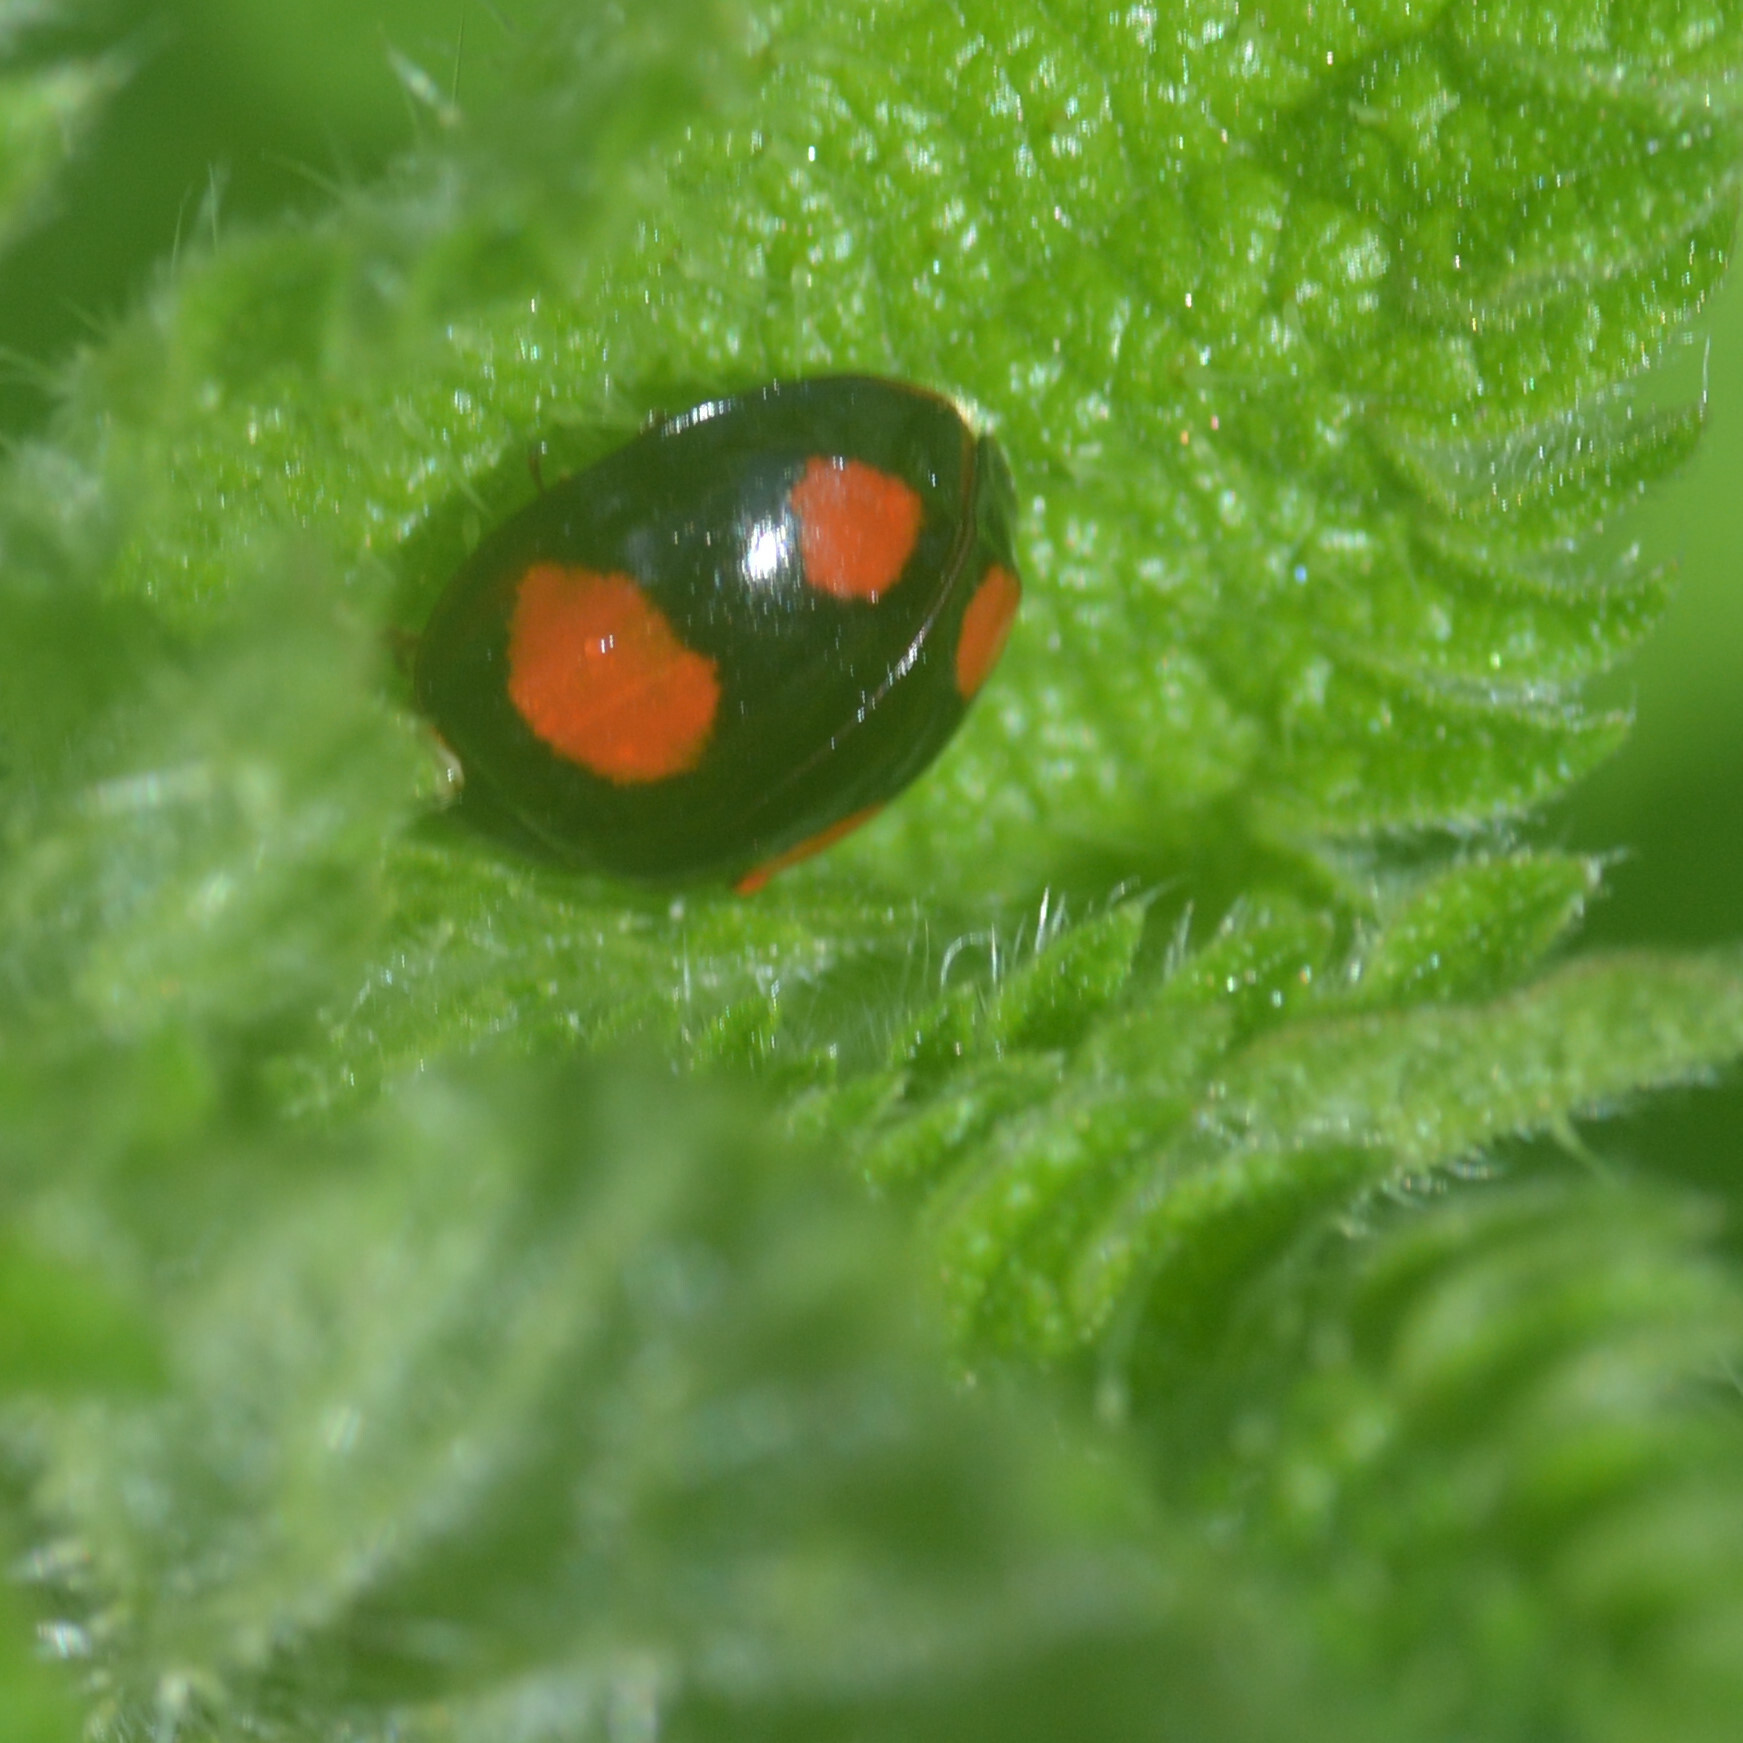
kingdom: Animalia
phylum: Arthropoda
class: Insecta
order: Coleoptera
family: Coccinellidae
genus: Harmonia
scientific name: Harmonia axyridis
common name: Harlequin ladybird
